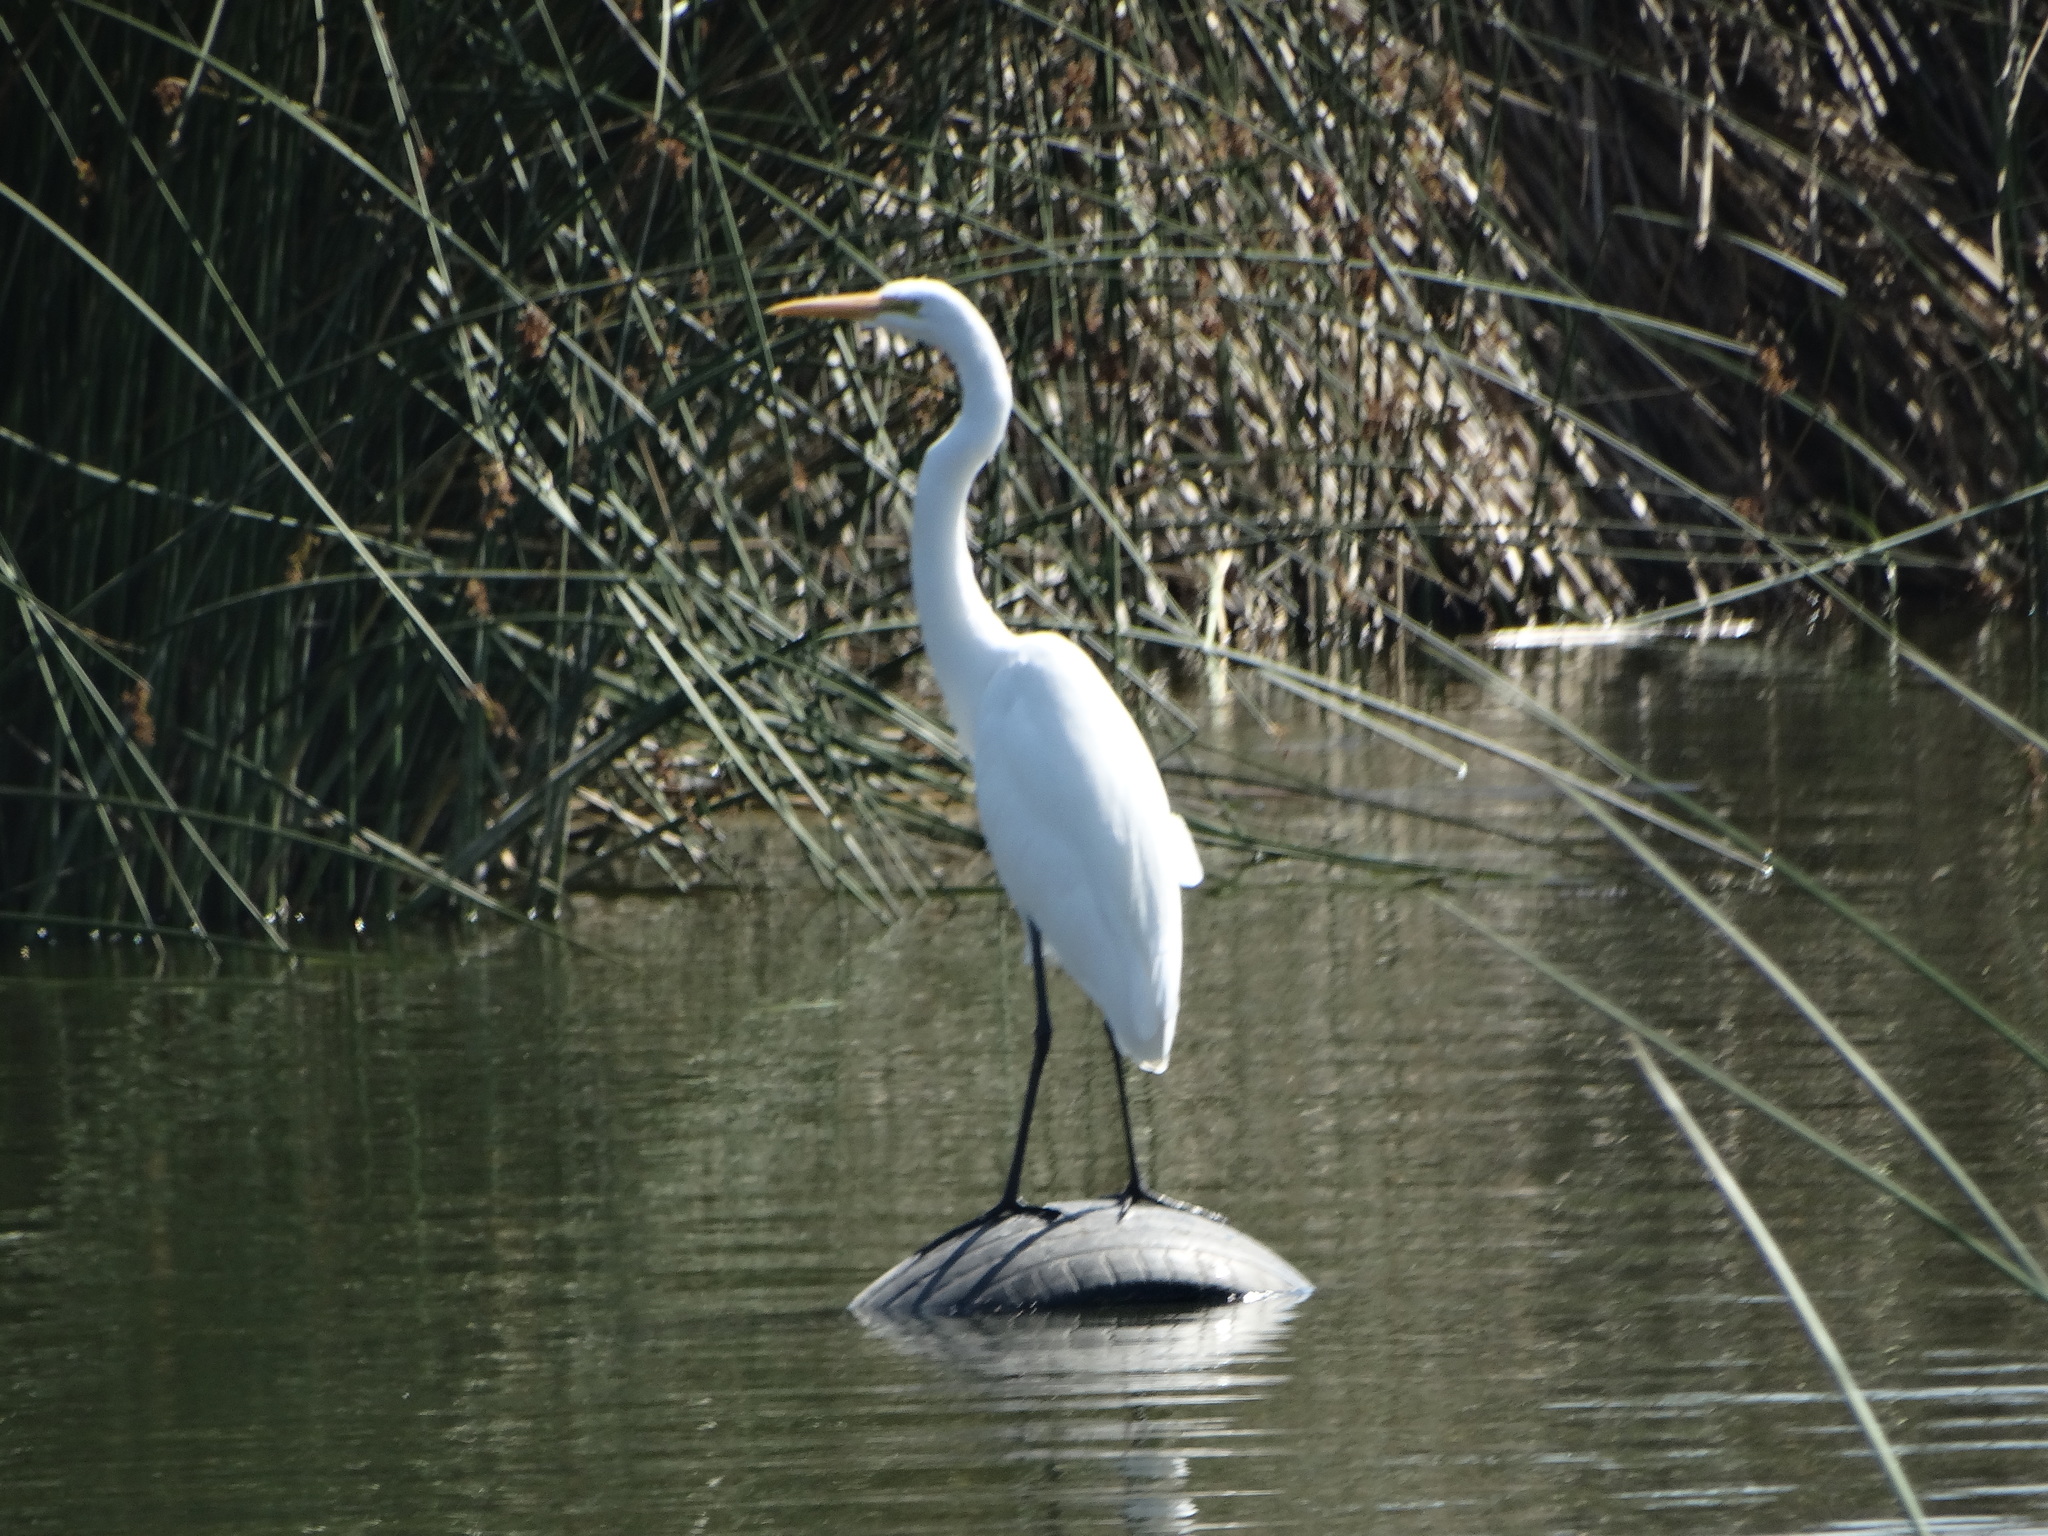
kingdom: Animalia
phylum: Chordata
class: Aves
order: Pelecaniformes
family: Ardeidae
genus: Ardea
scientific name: Ardea alba
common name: Great egret
